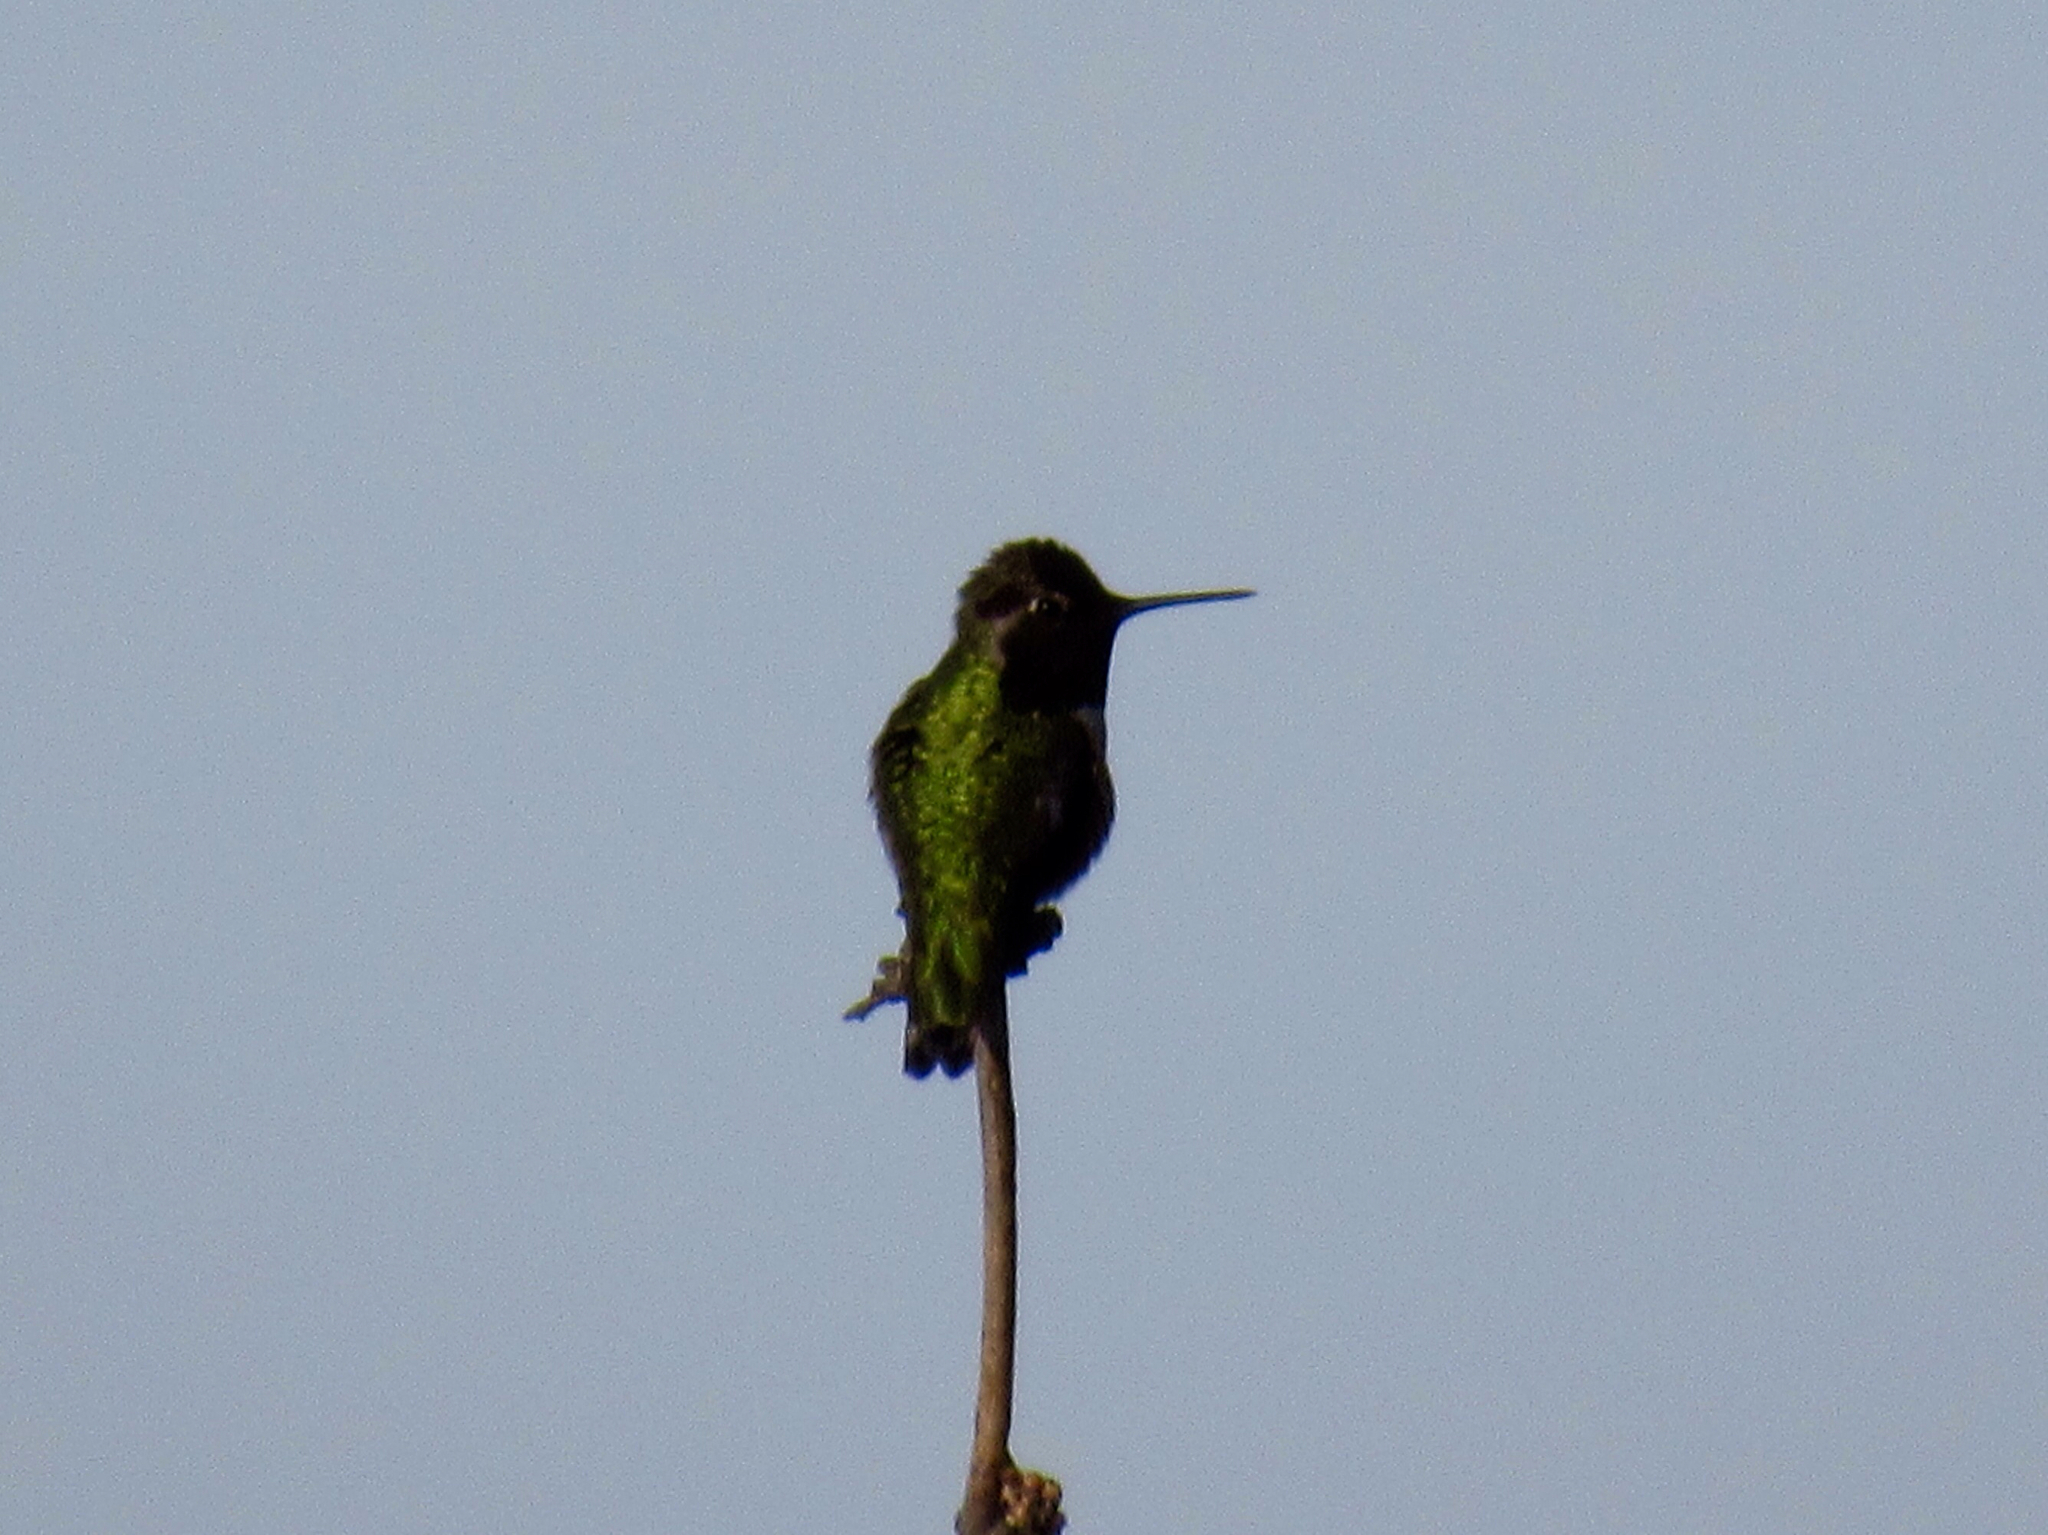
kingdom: Animalia
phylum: Chordata
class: Aves
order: Apodiformes
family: Trochilidae
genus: Calypte
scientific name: Calypte anna
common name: Anna's hummingbird
